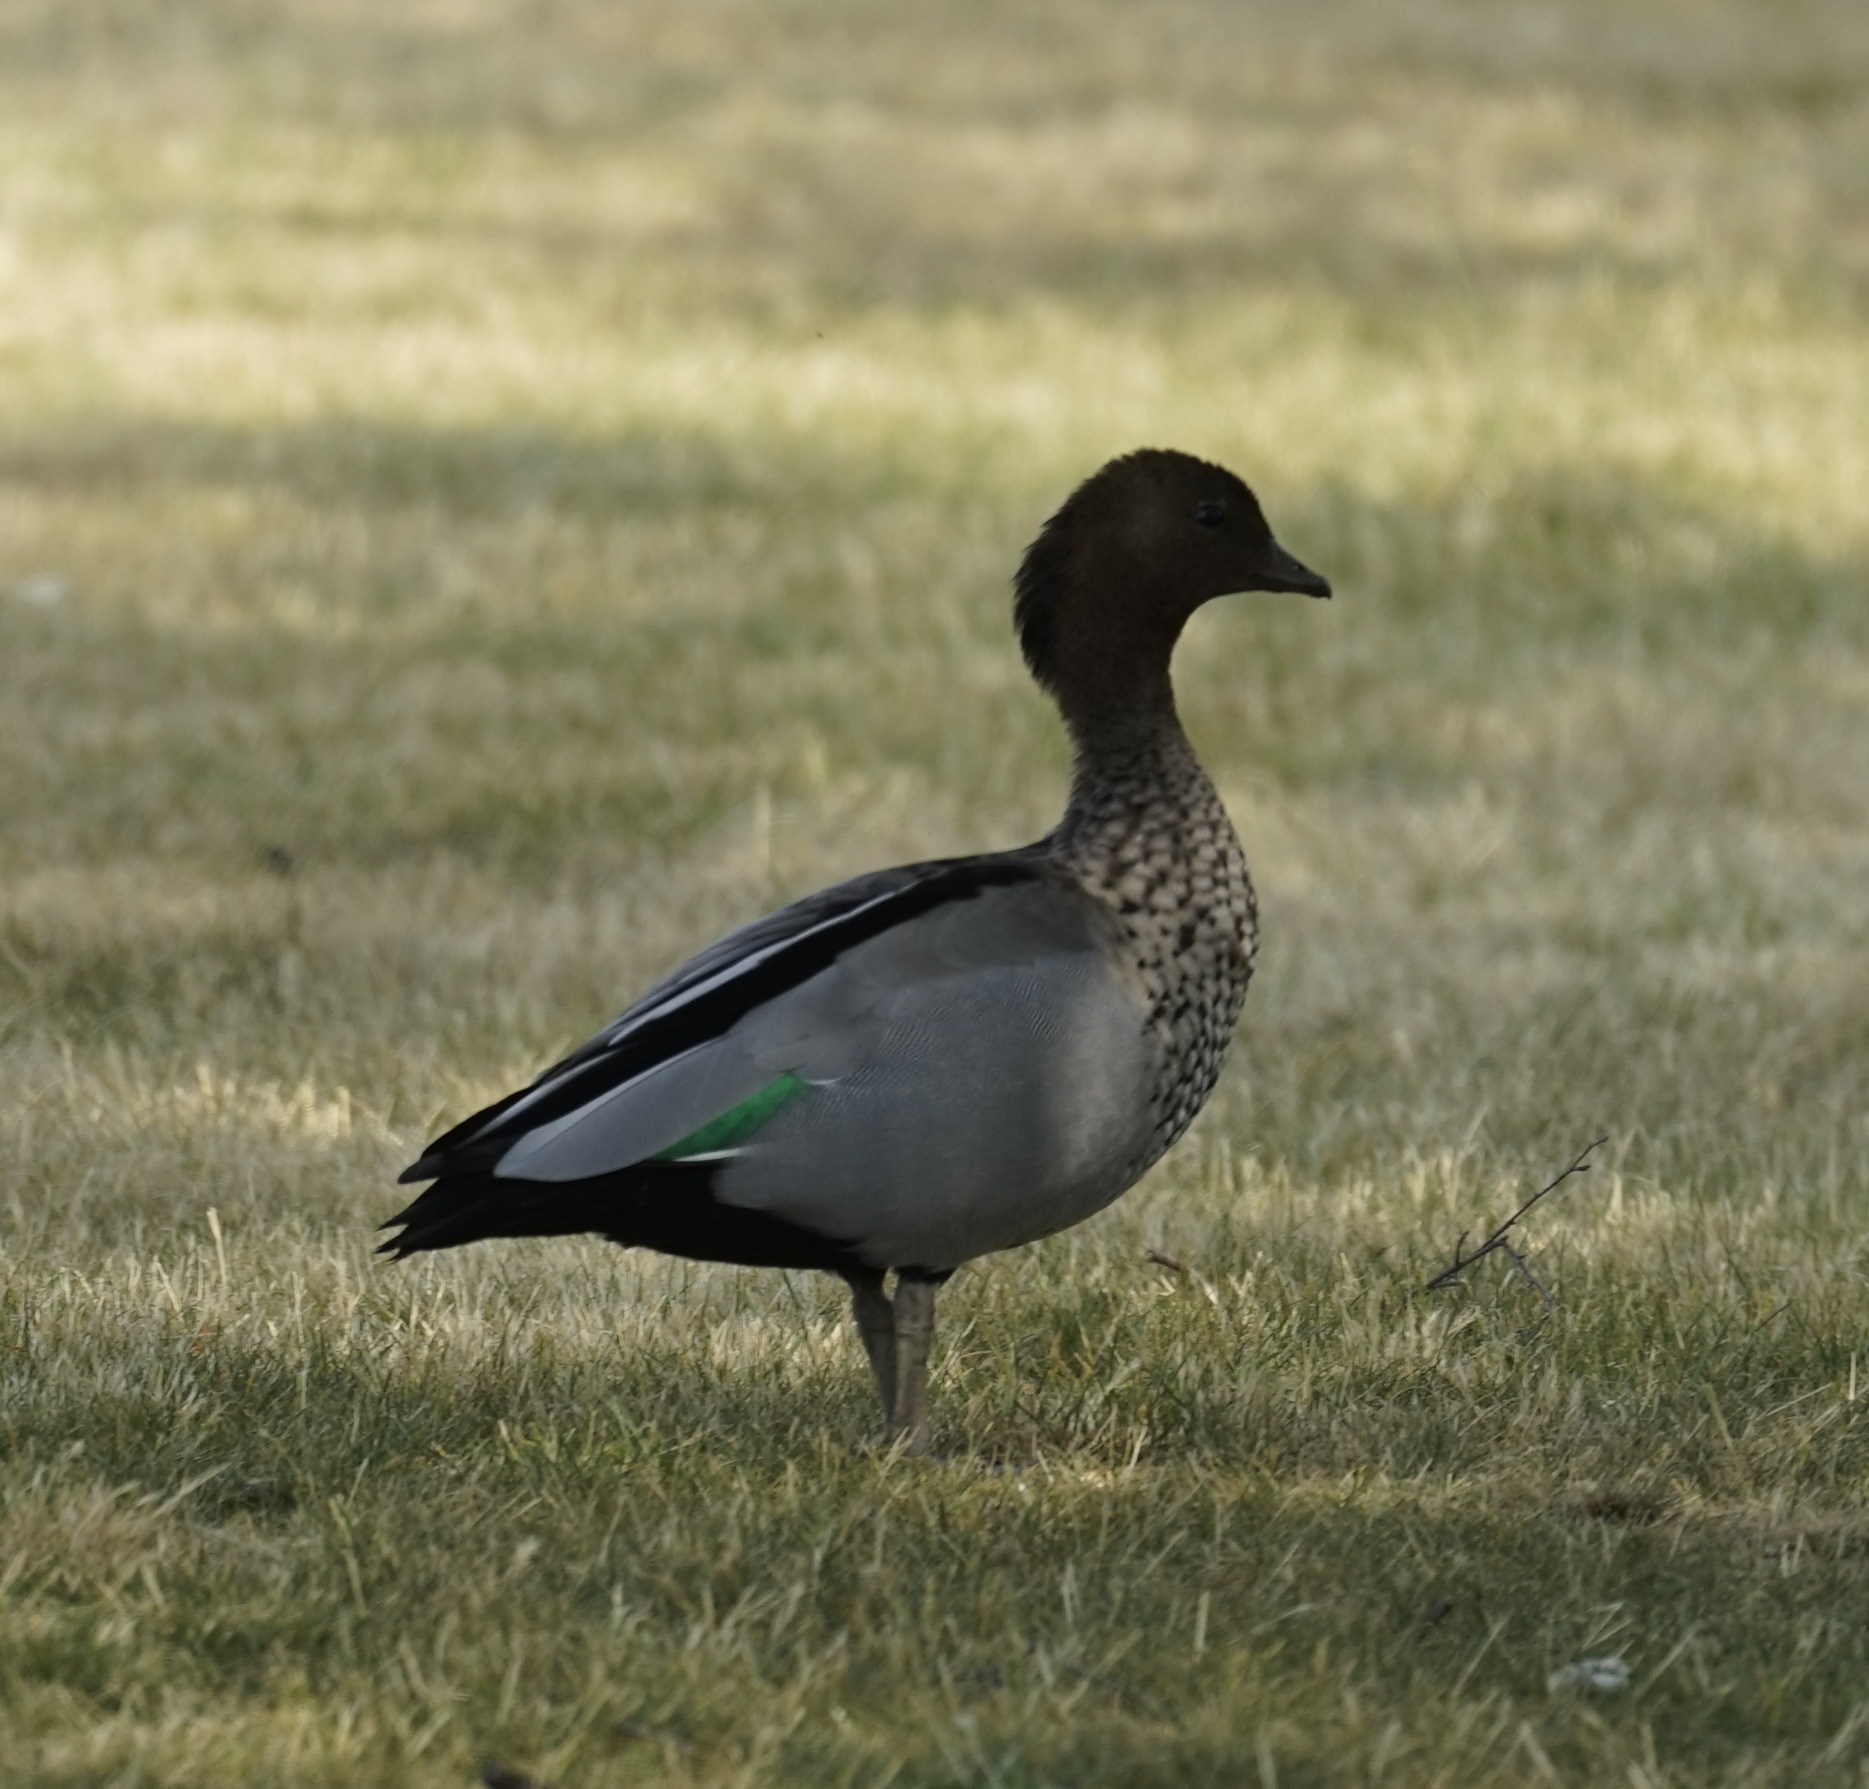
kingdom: Animalia
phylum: Chordata
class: Aves
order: Anseriformes
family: Anatidae
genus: Chenonetta
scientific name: Chenonetta jubata
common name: Maned duck
